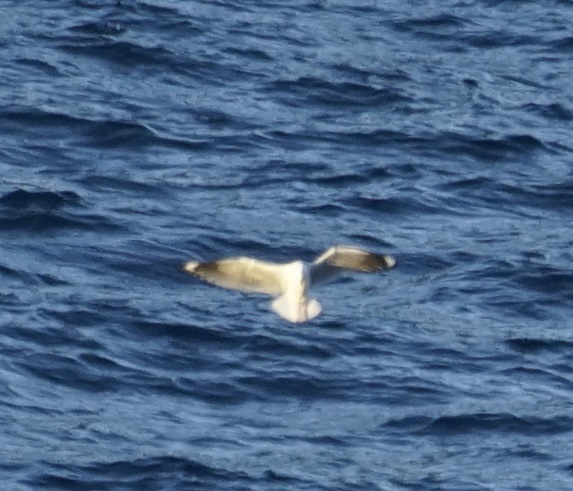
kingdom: Animalia
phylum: Chordata
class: Aves
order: Charadriiformes
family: Laridae
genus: Chroicocephalus
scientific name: Chroicocephalus novaehollandiae
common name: Silver gull
